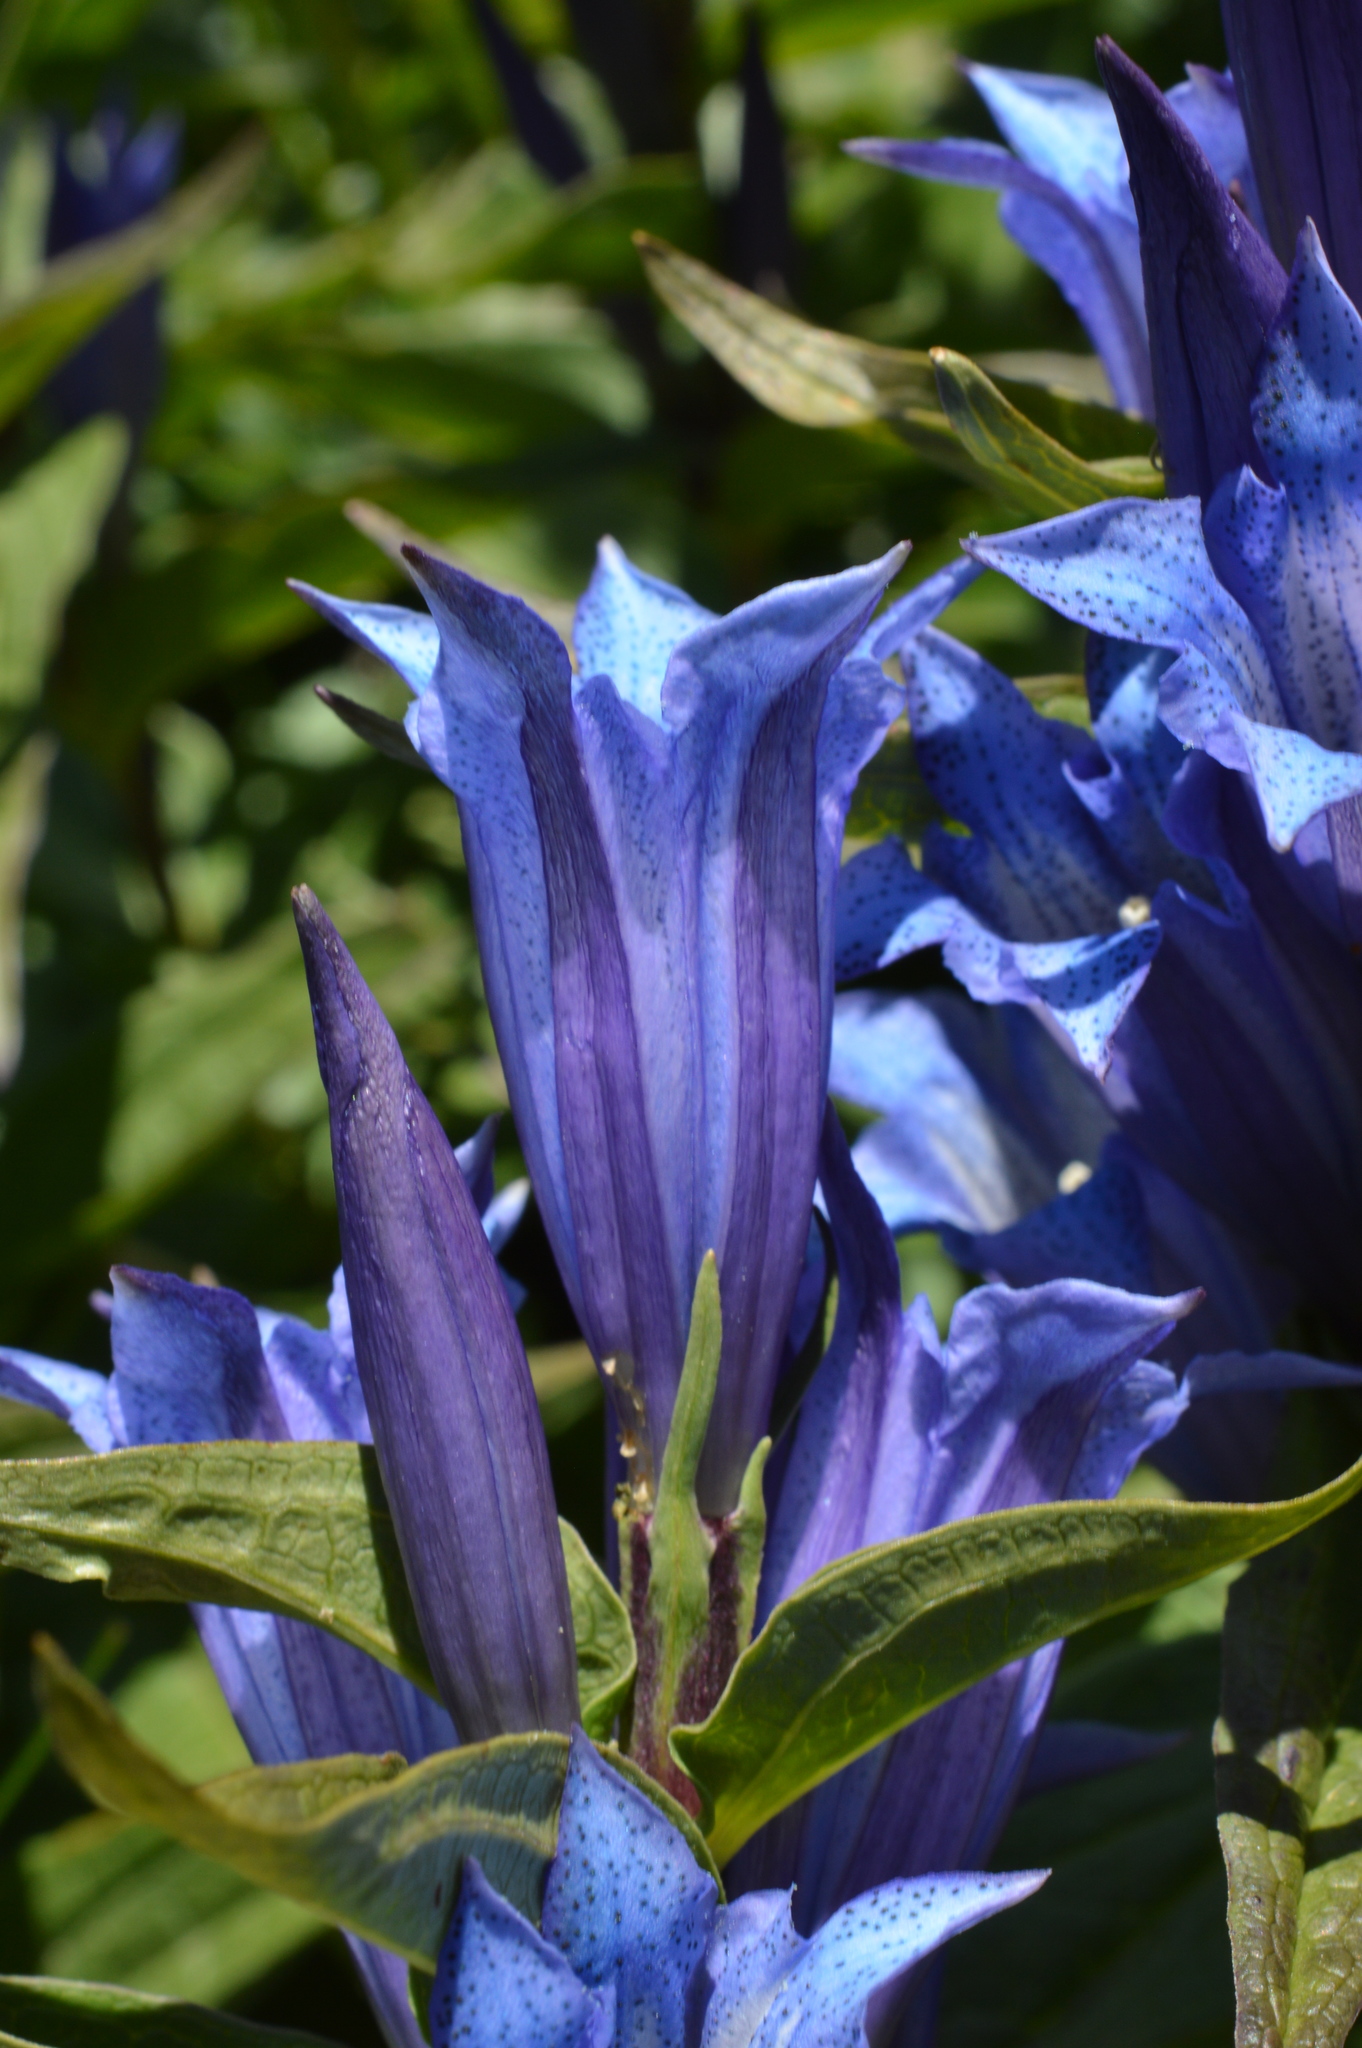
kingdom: Plantae
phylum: Tracheophyta
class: Magnoliopsida
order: Gentianales
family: Gentianaceae
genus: Gentiana
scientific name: Gentiana asclepiadea
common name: Willow gentian
